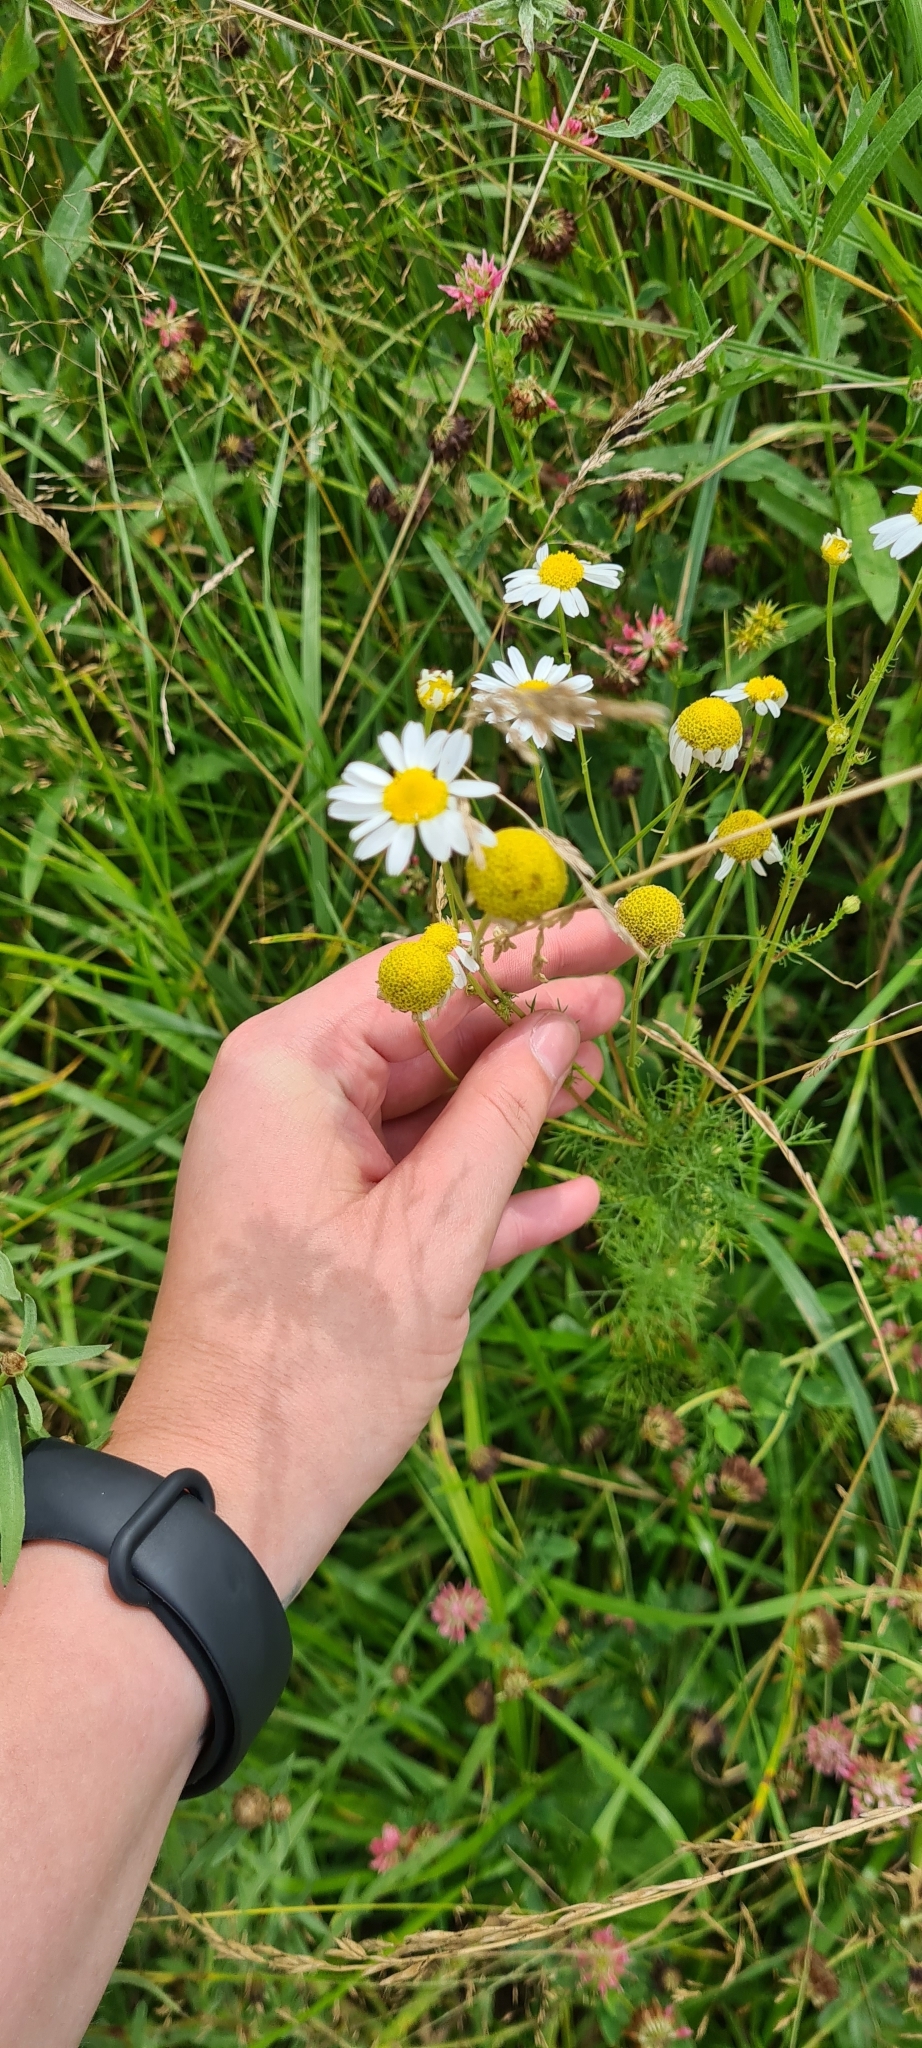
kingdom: Plantae
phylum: Tracheophyta
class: Magnoliopsida
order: Asterales
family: Asteraceae
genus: Tripleurospermum
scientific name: Tripleurospermum inodorum
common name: Scentless mayweed
